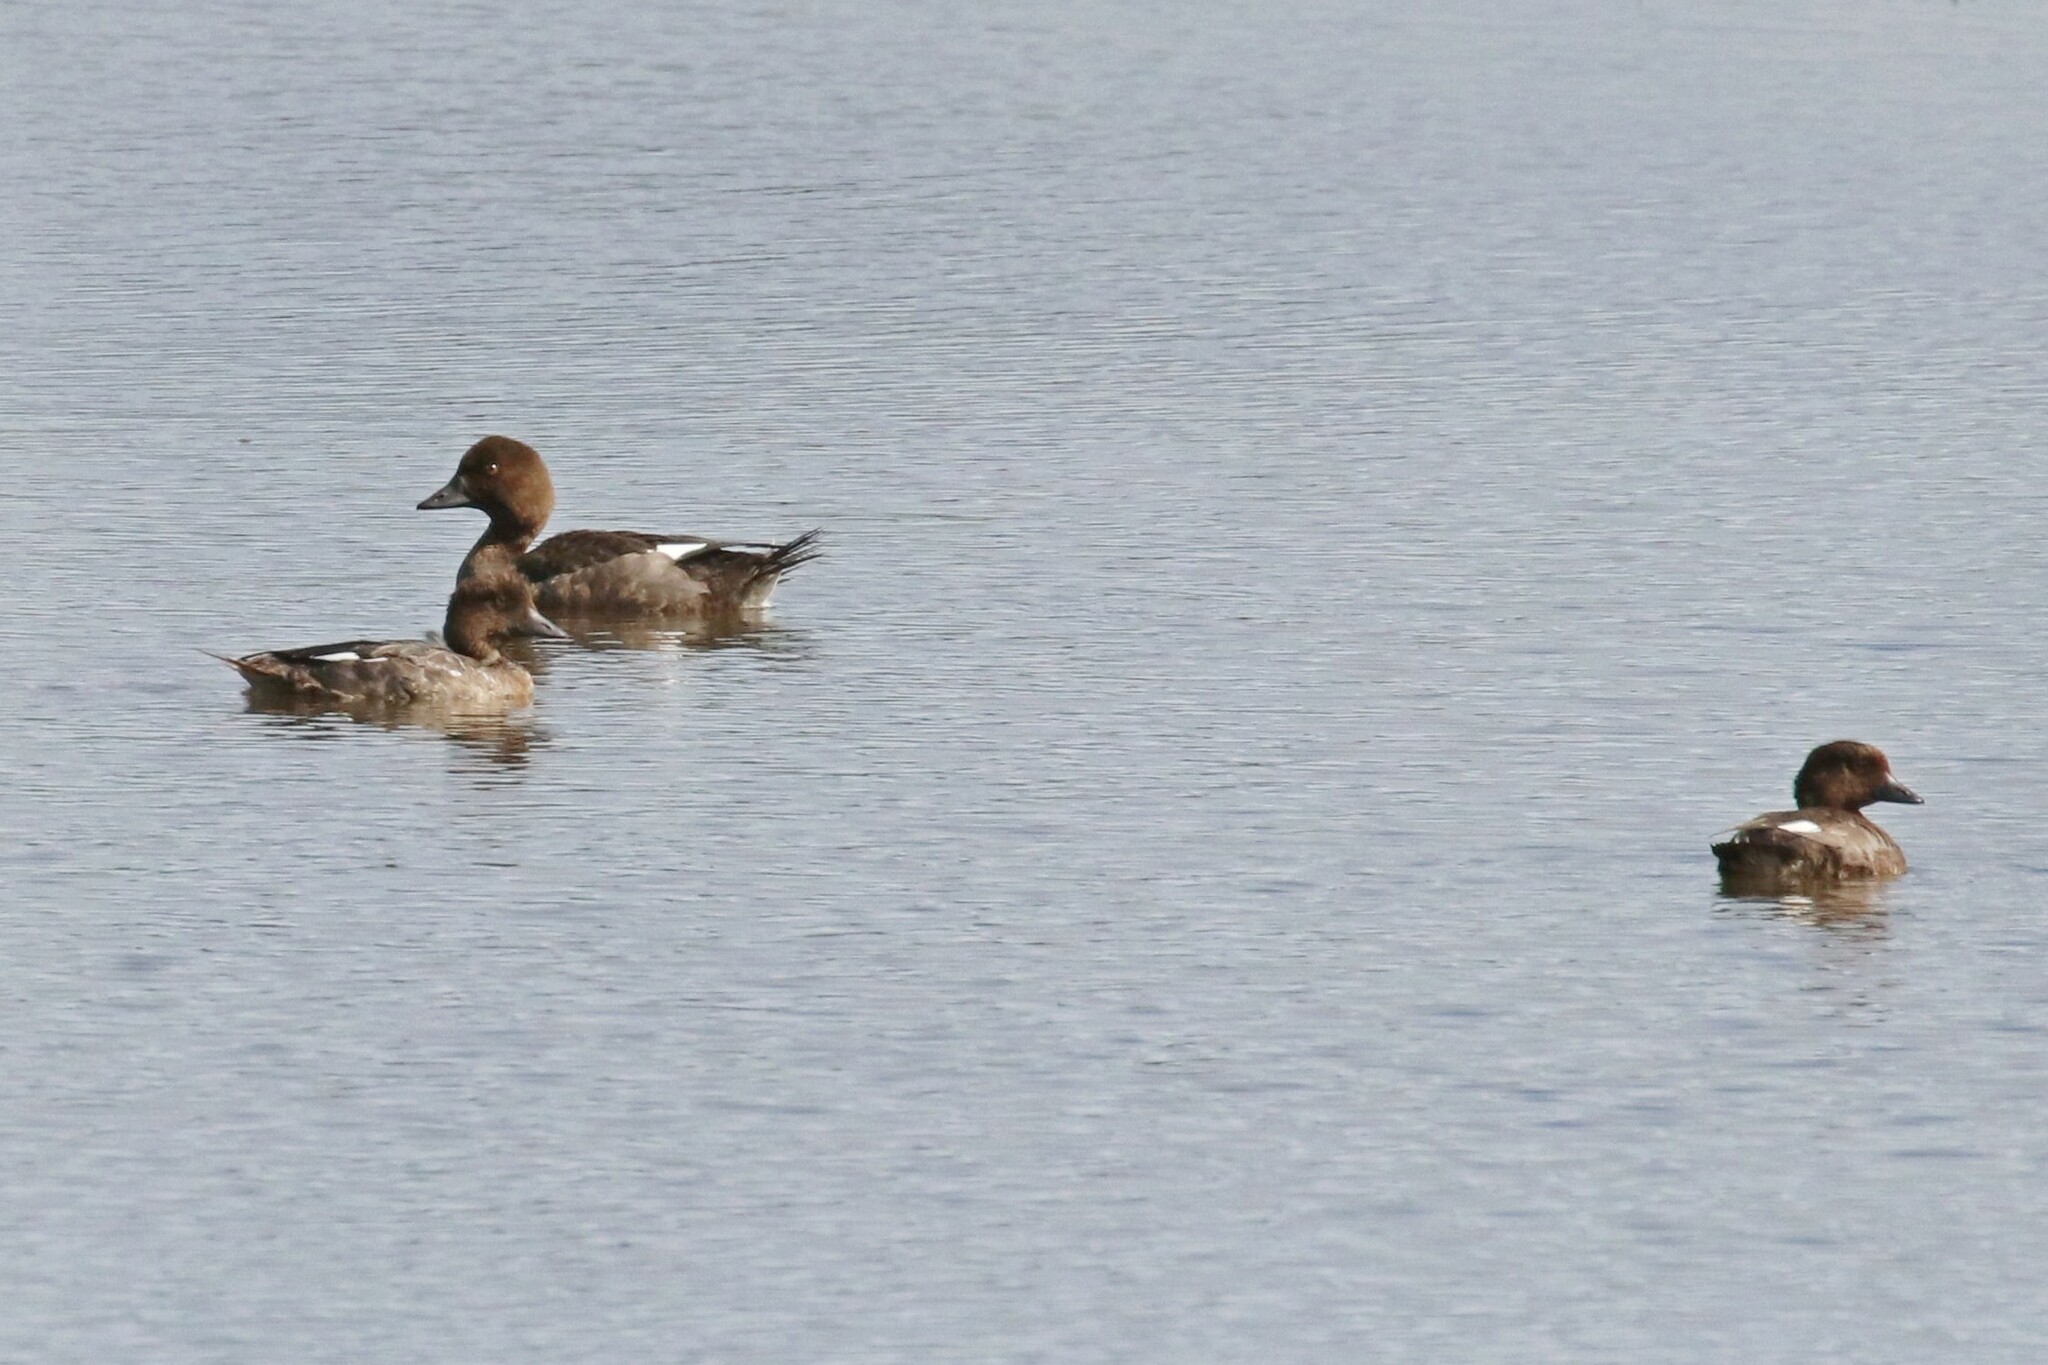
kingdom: Animalia
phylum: Chordata
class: Aves
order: Anseriformes
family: Anatidae
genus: Bucephala
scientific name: Bucephala clangula
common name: Common goldeneye
